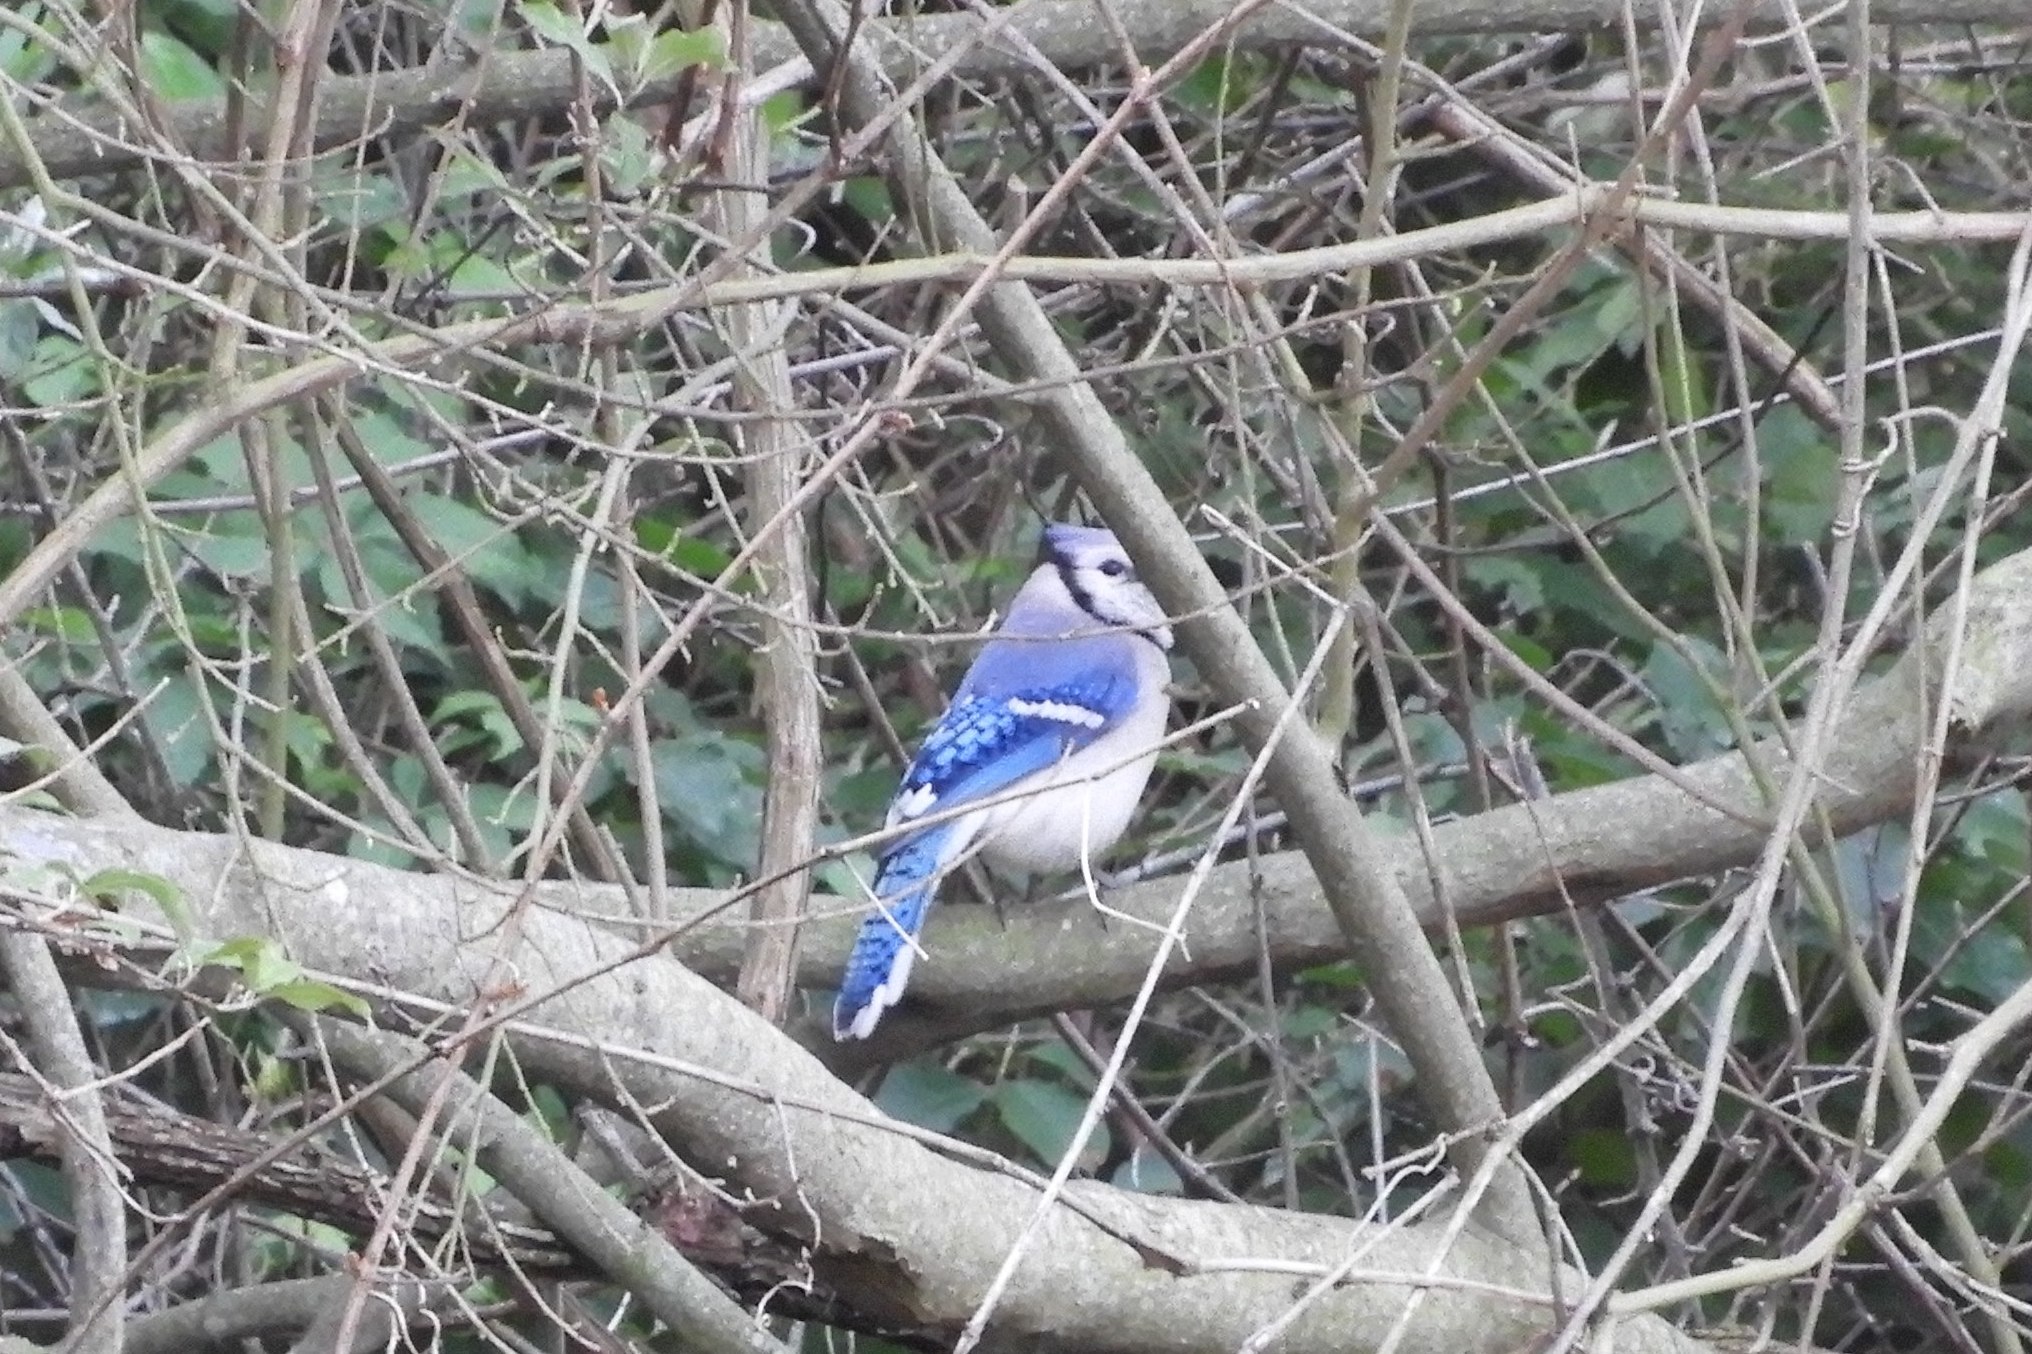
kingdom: Animalia
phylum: Chordata
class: Aves
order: Passeriformes
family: Corvidae
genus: Cyanocitta
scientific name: Cyanocitta cristata
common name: Blue jay
